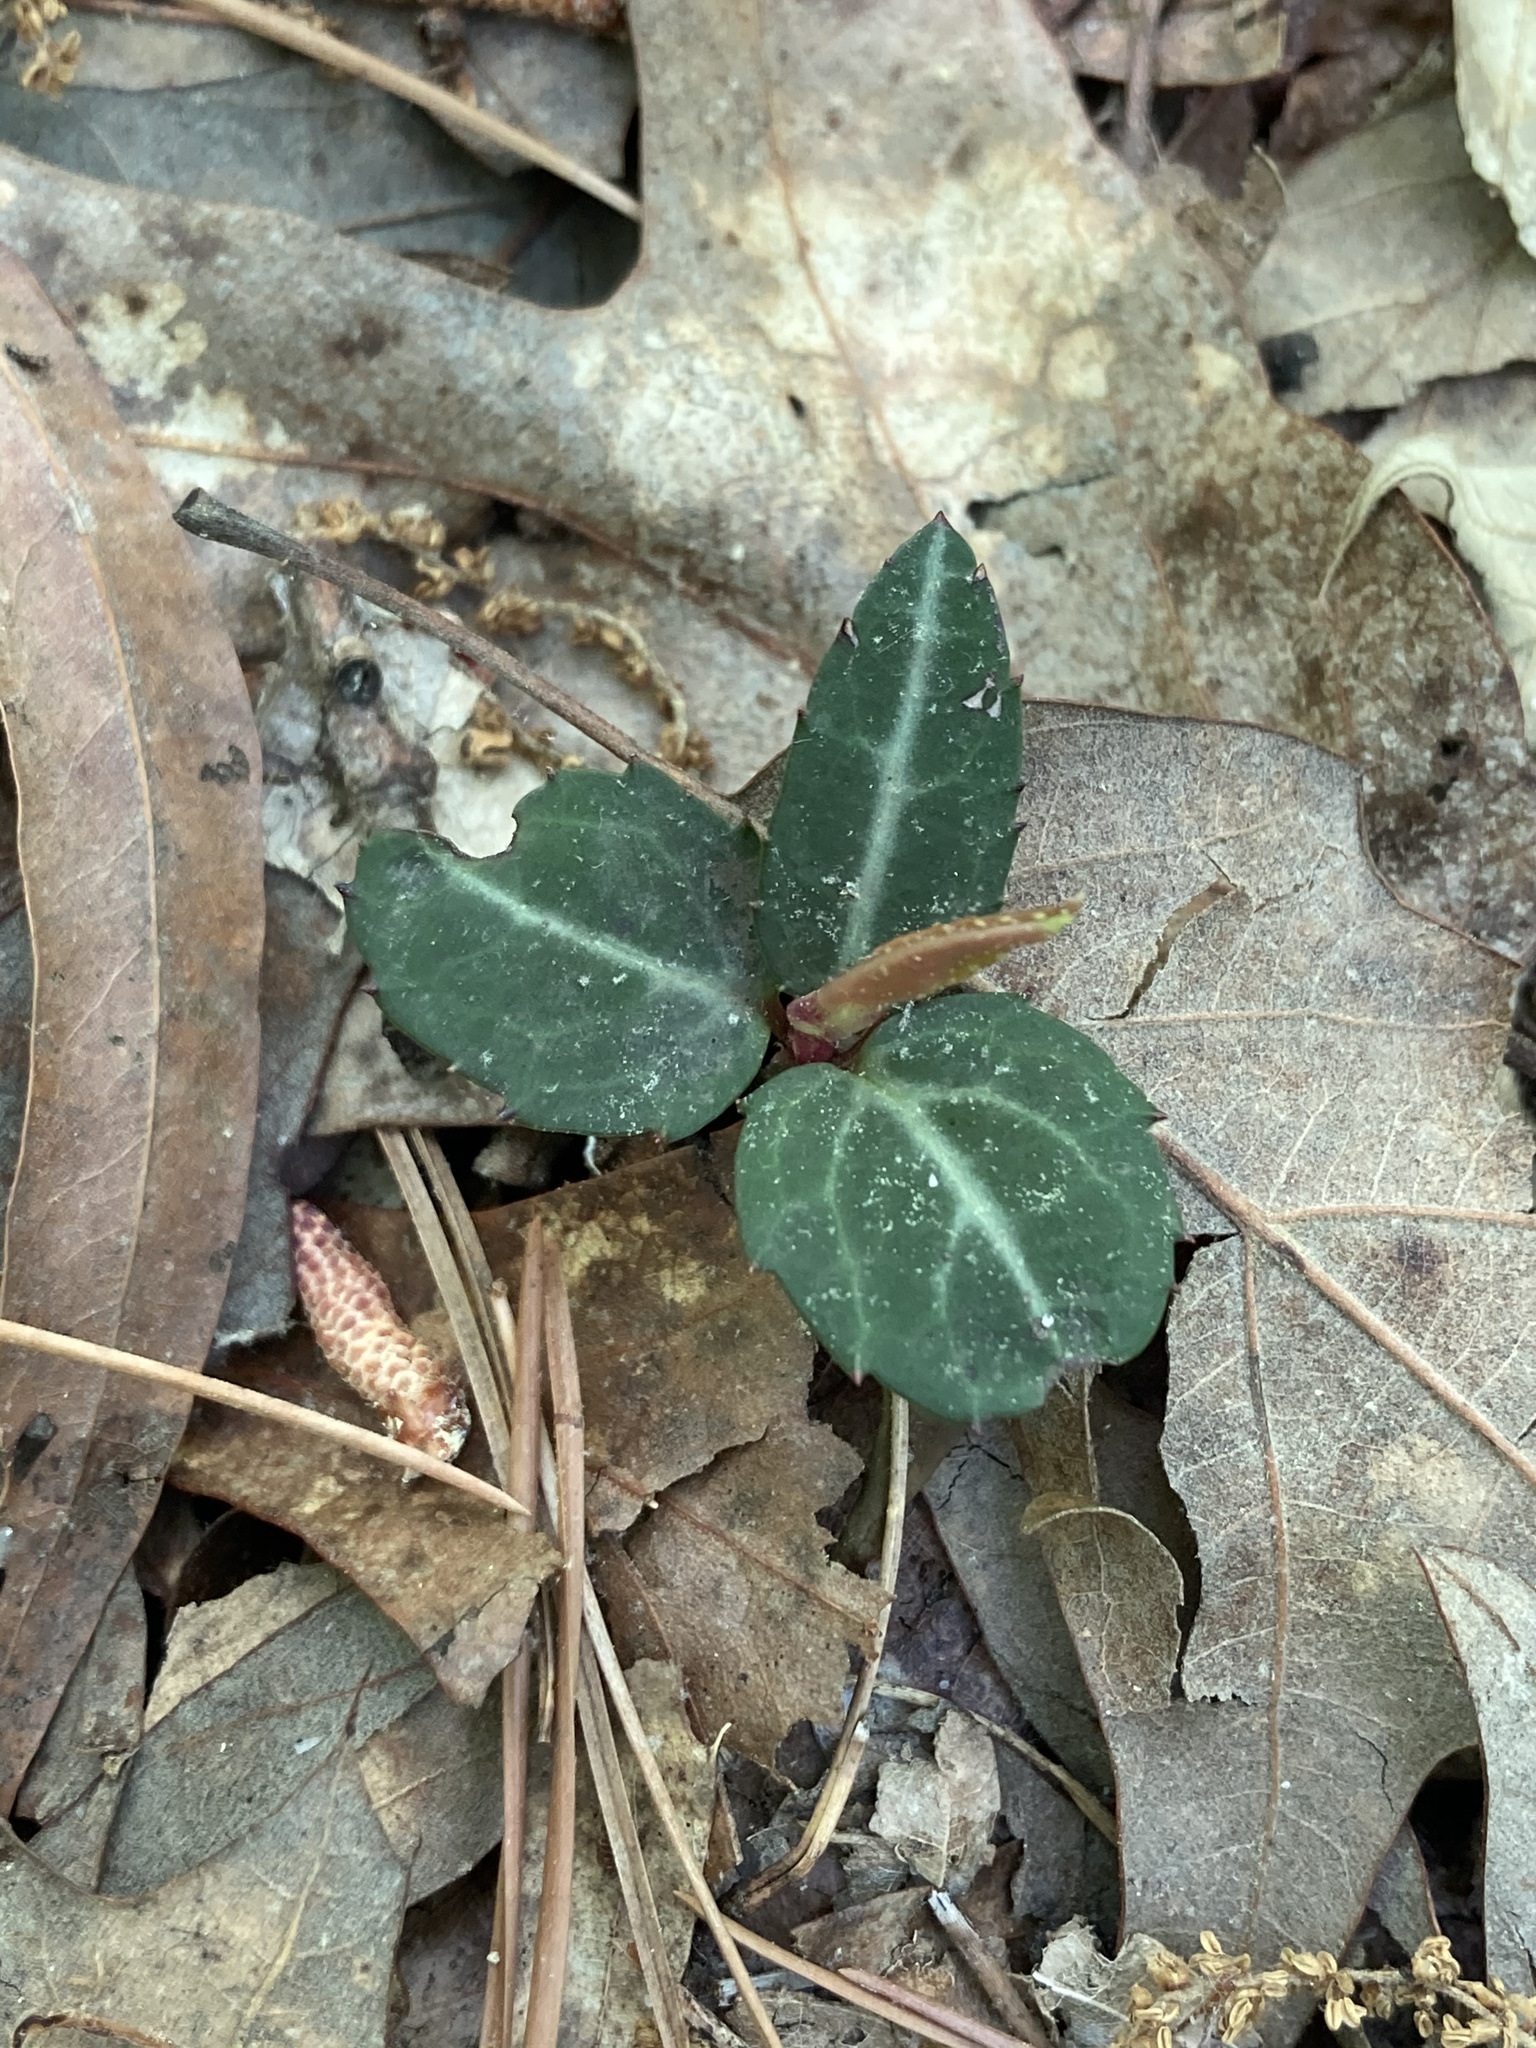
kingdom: Plantae
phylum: Tracheophyta
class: Magnoliopsida
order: Ericales
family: Ericaceae
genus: Chimaphila
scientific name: Chimaphila maculata
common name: Spotted pipsissewa
